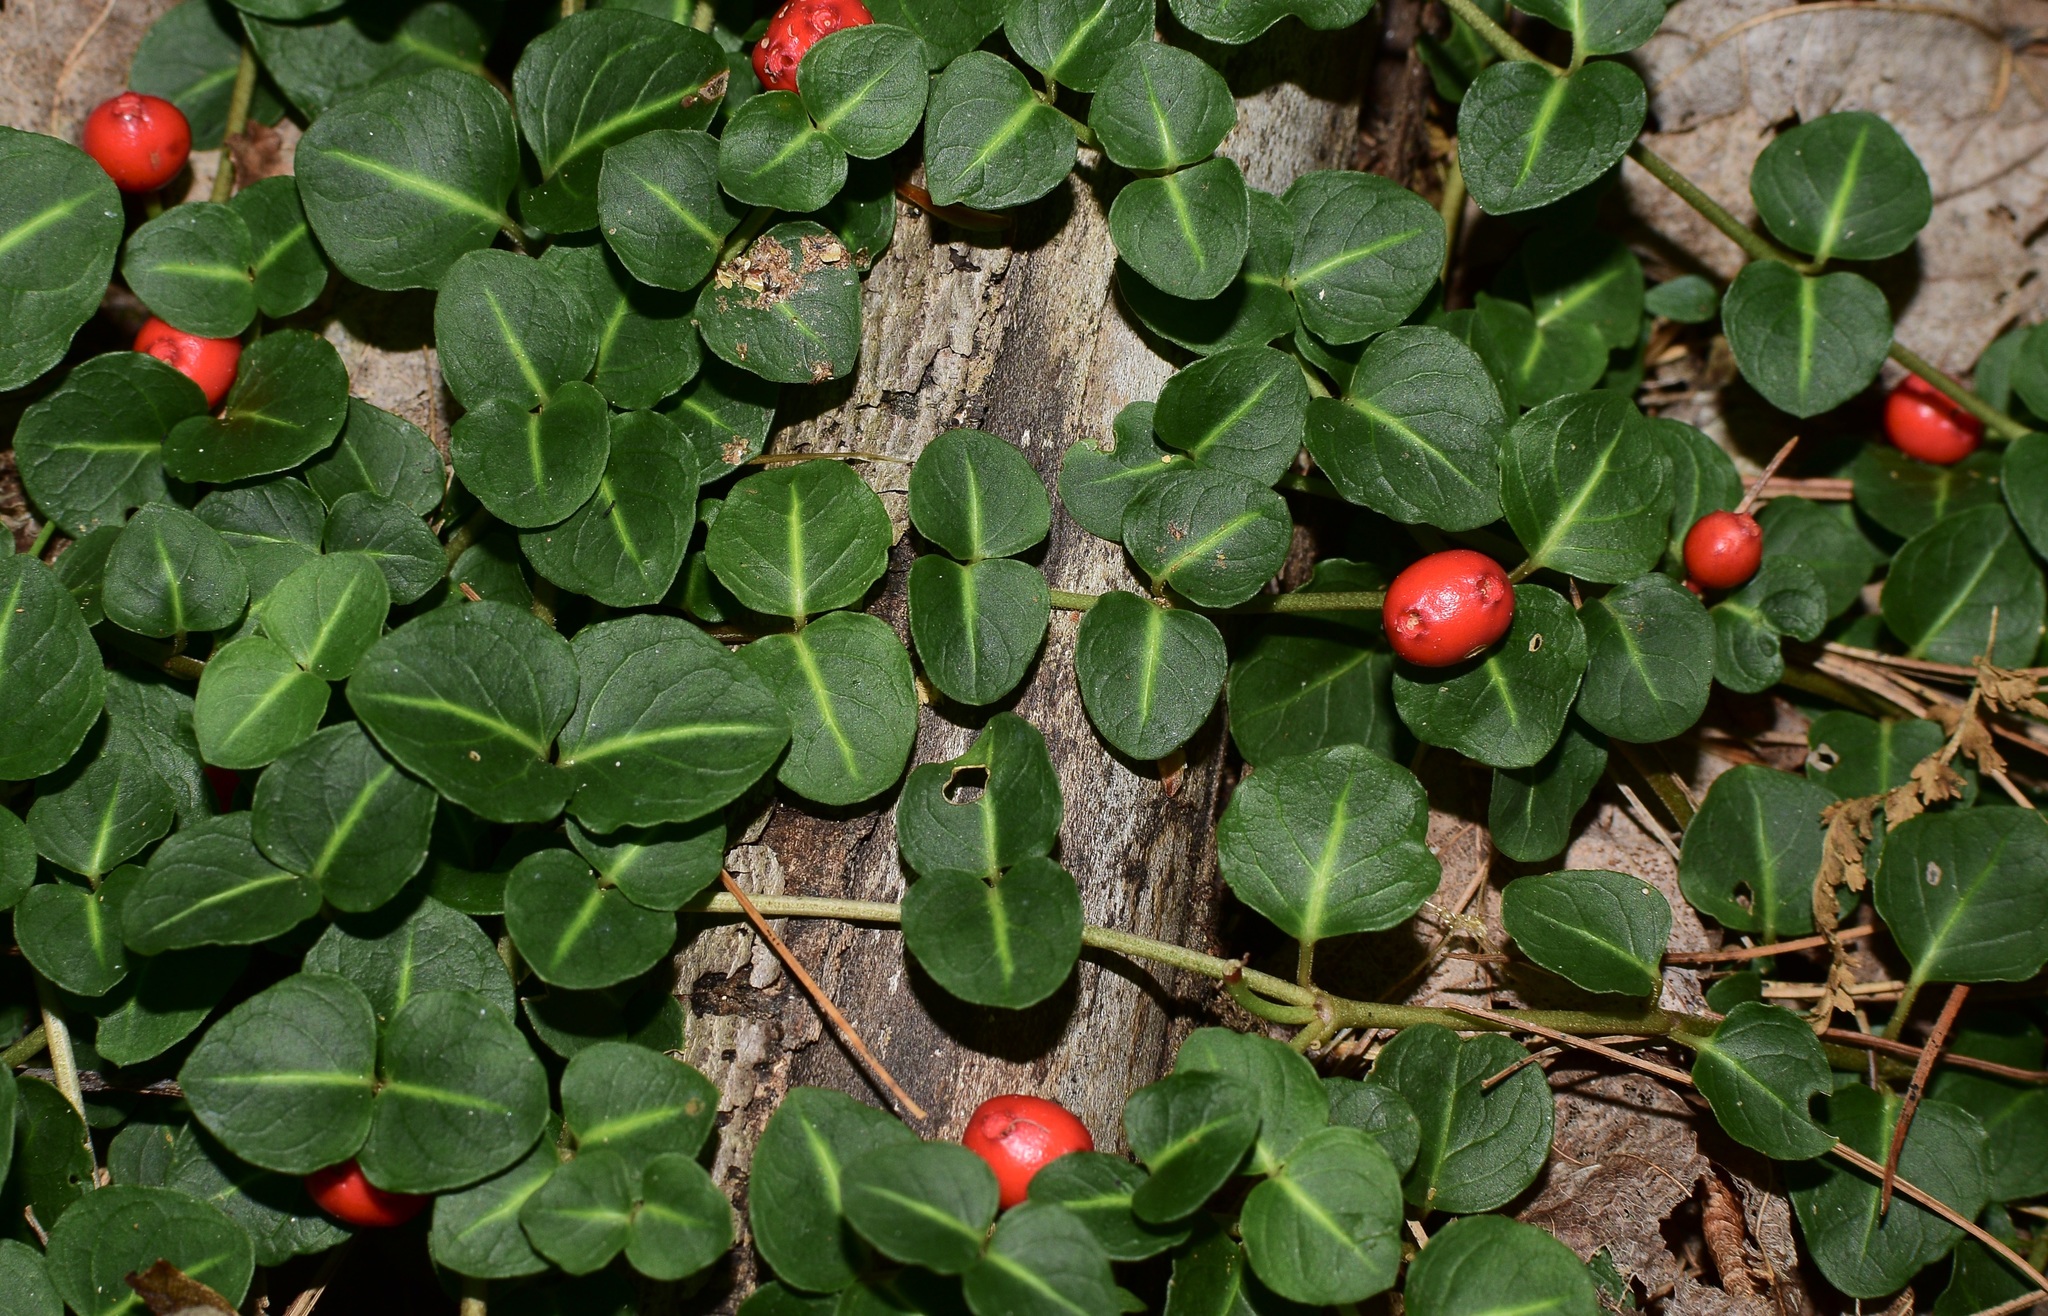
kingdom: Plantae
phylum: Tracheophyta
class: Magnoliopsida
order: Gentianales
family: Rubiaceae
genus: Mitchella
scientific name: Mitchella repens
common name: Partridge-berry
